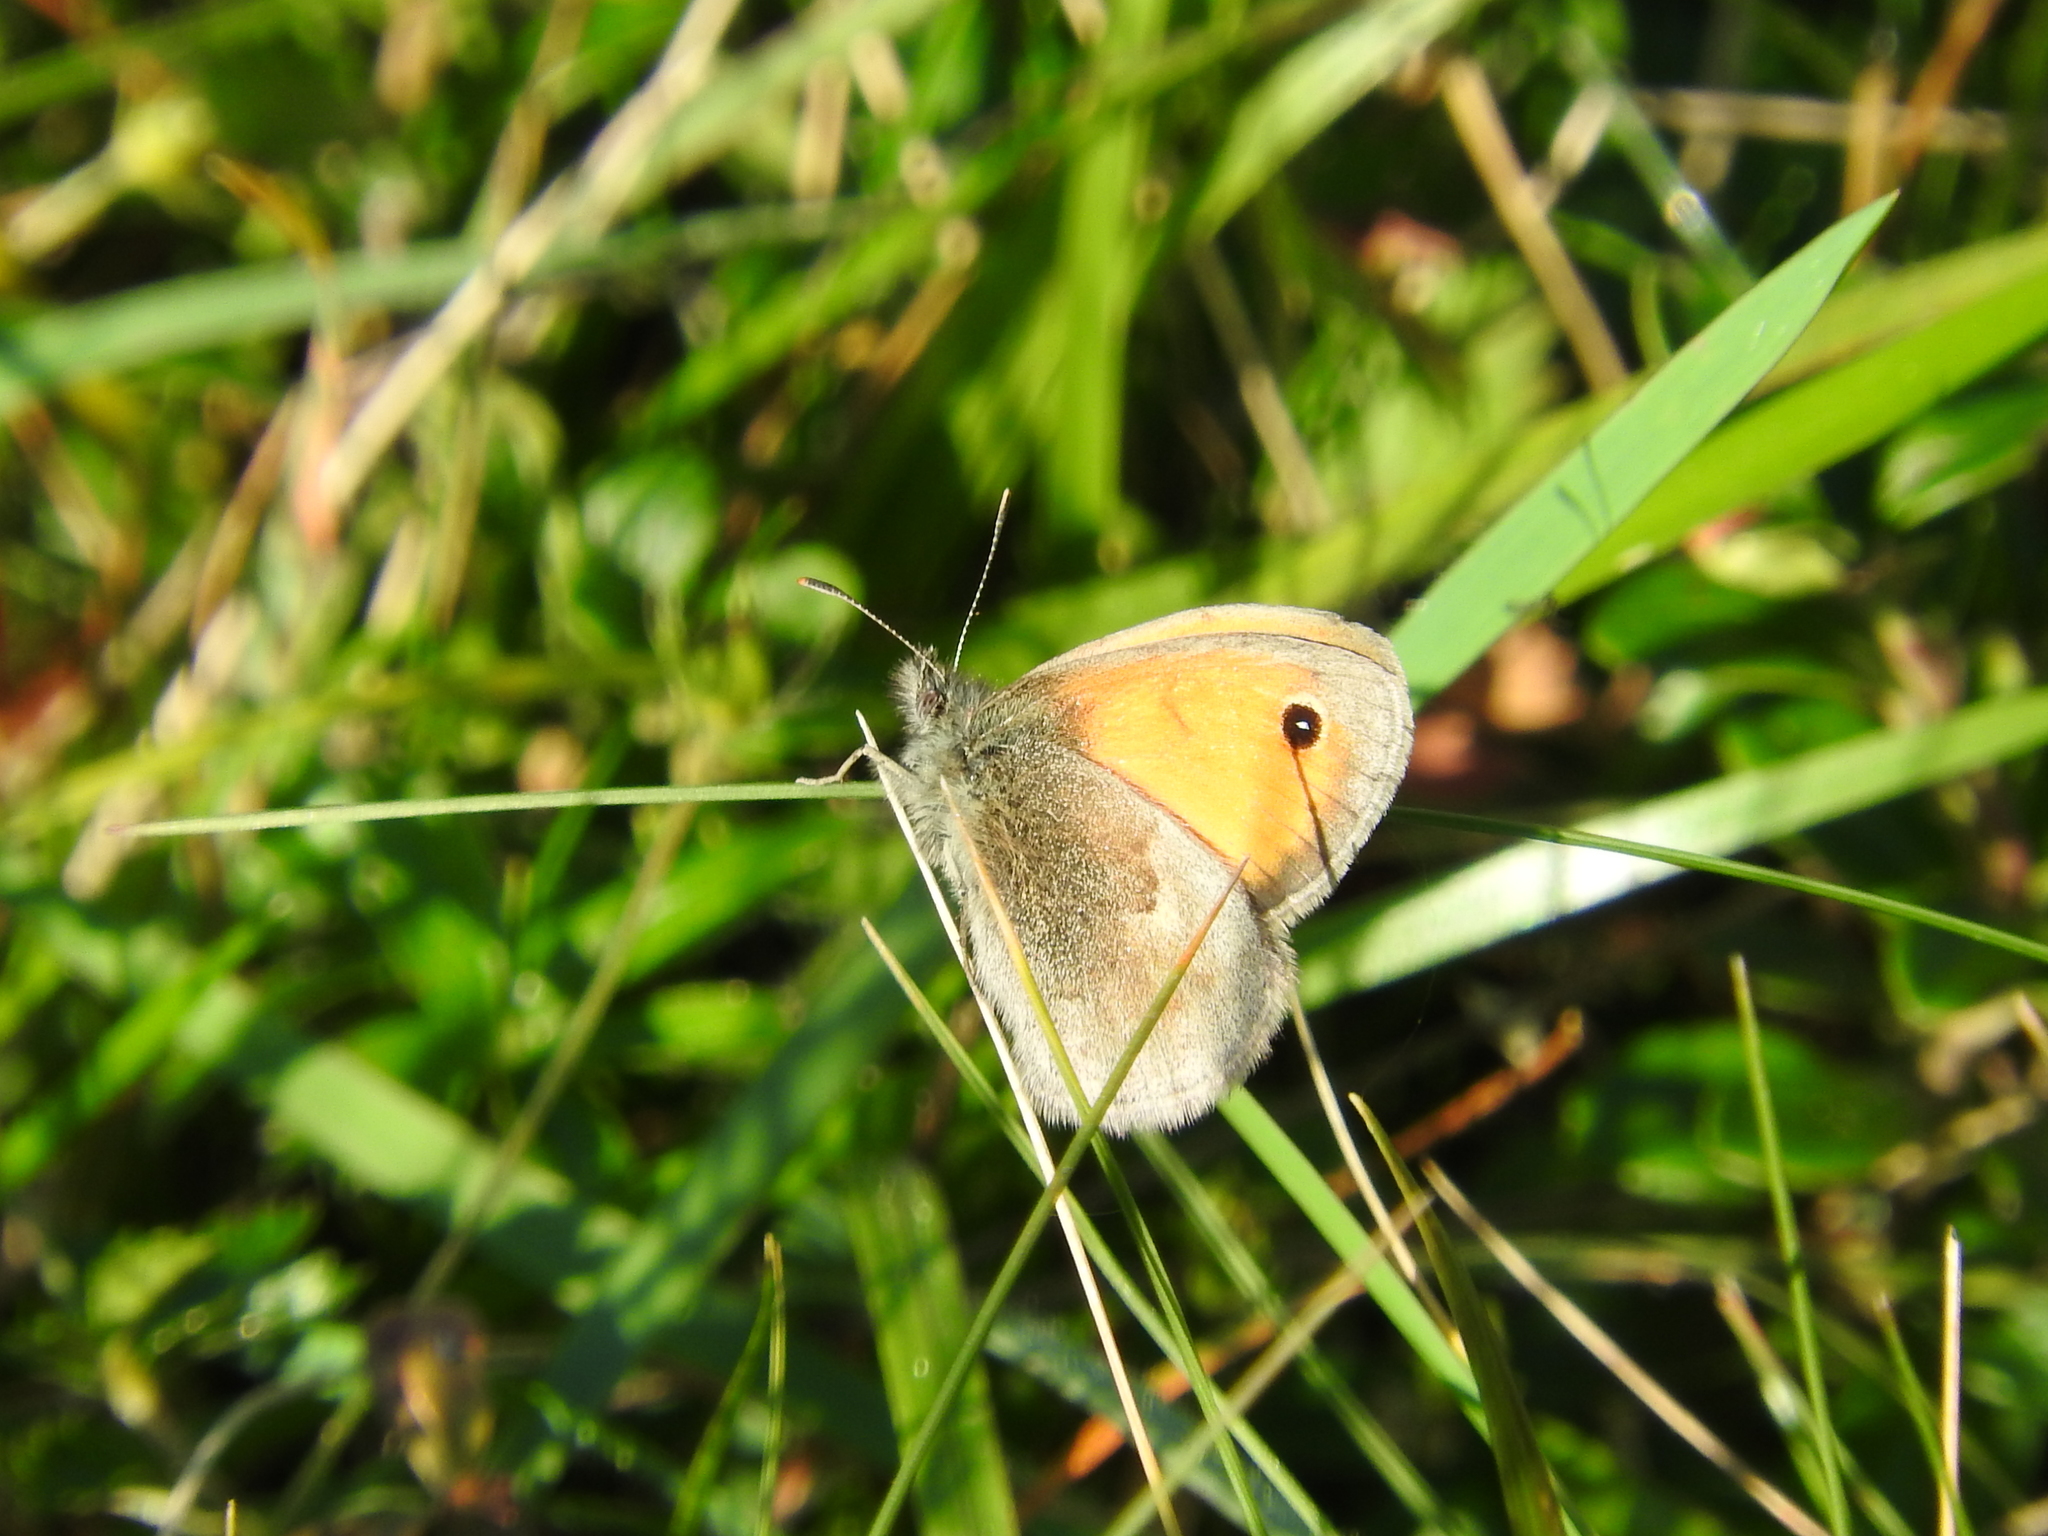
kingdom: Animalia
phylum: Arthropoda
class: Insecta
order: Lepidoptera
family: Nymphalidae
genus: Coenonympha
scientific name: Coenonympha pamphilus
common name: Small heath
